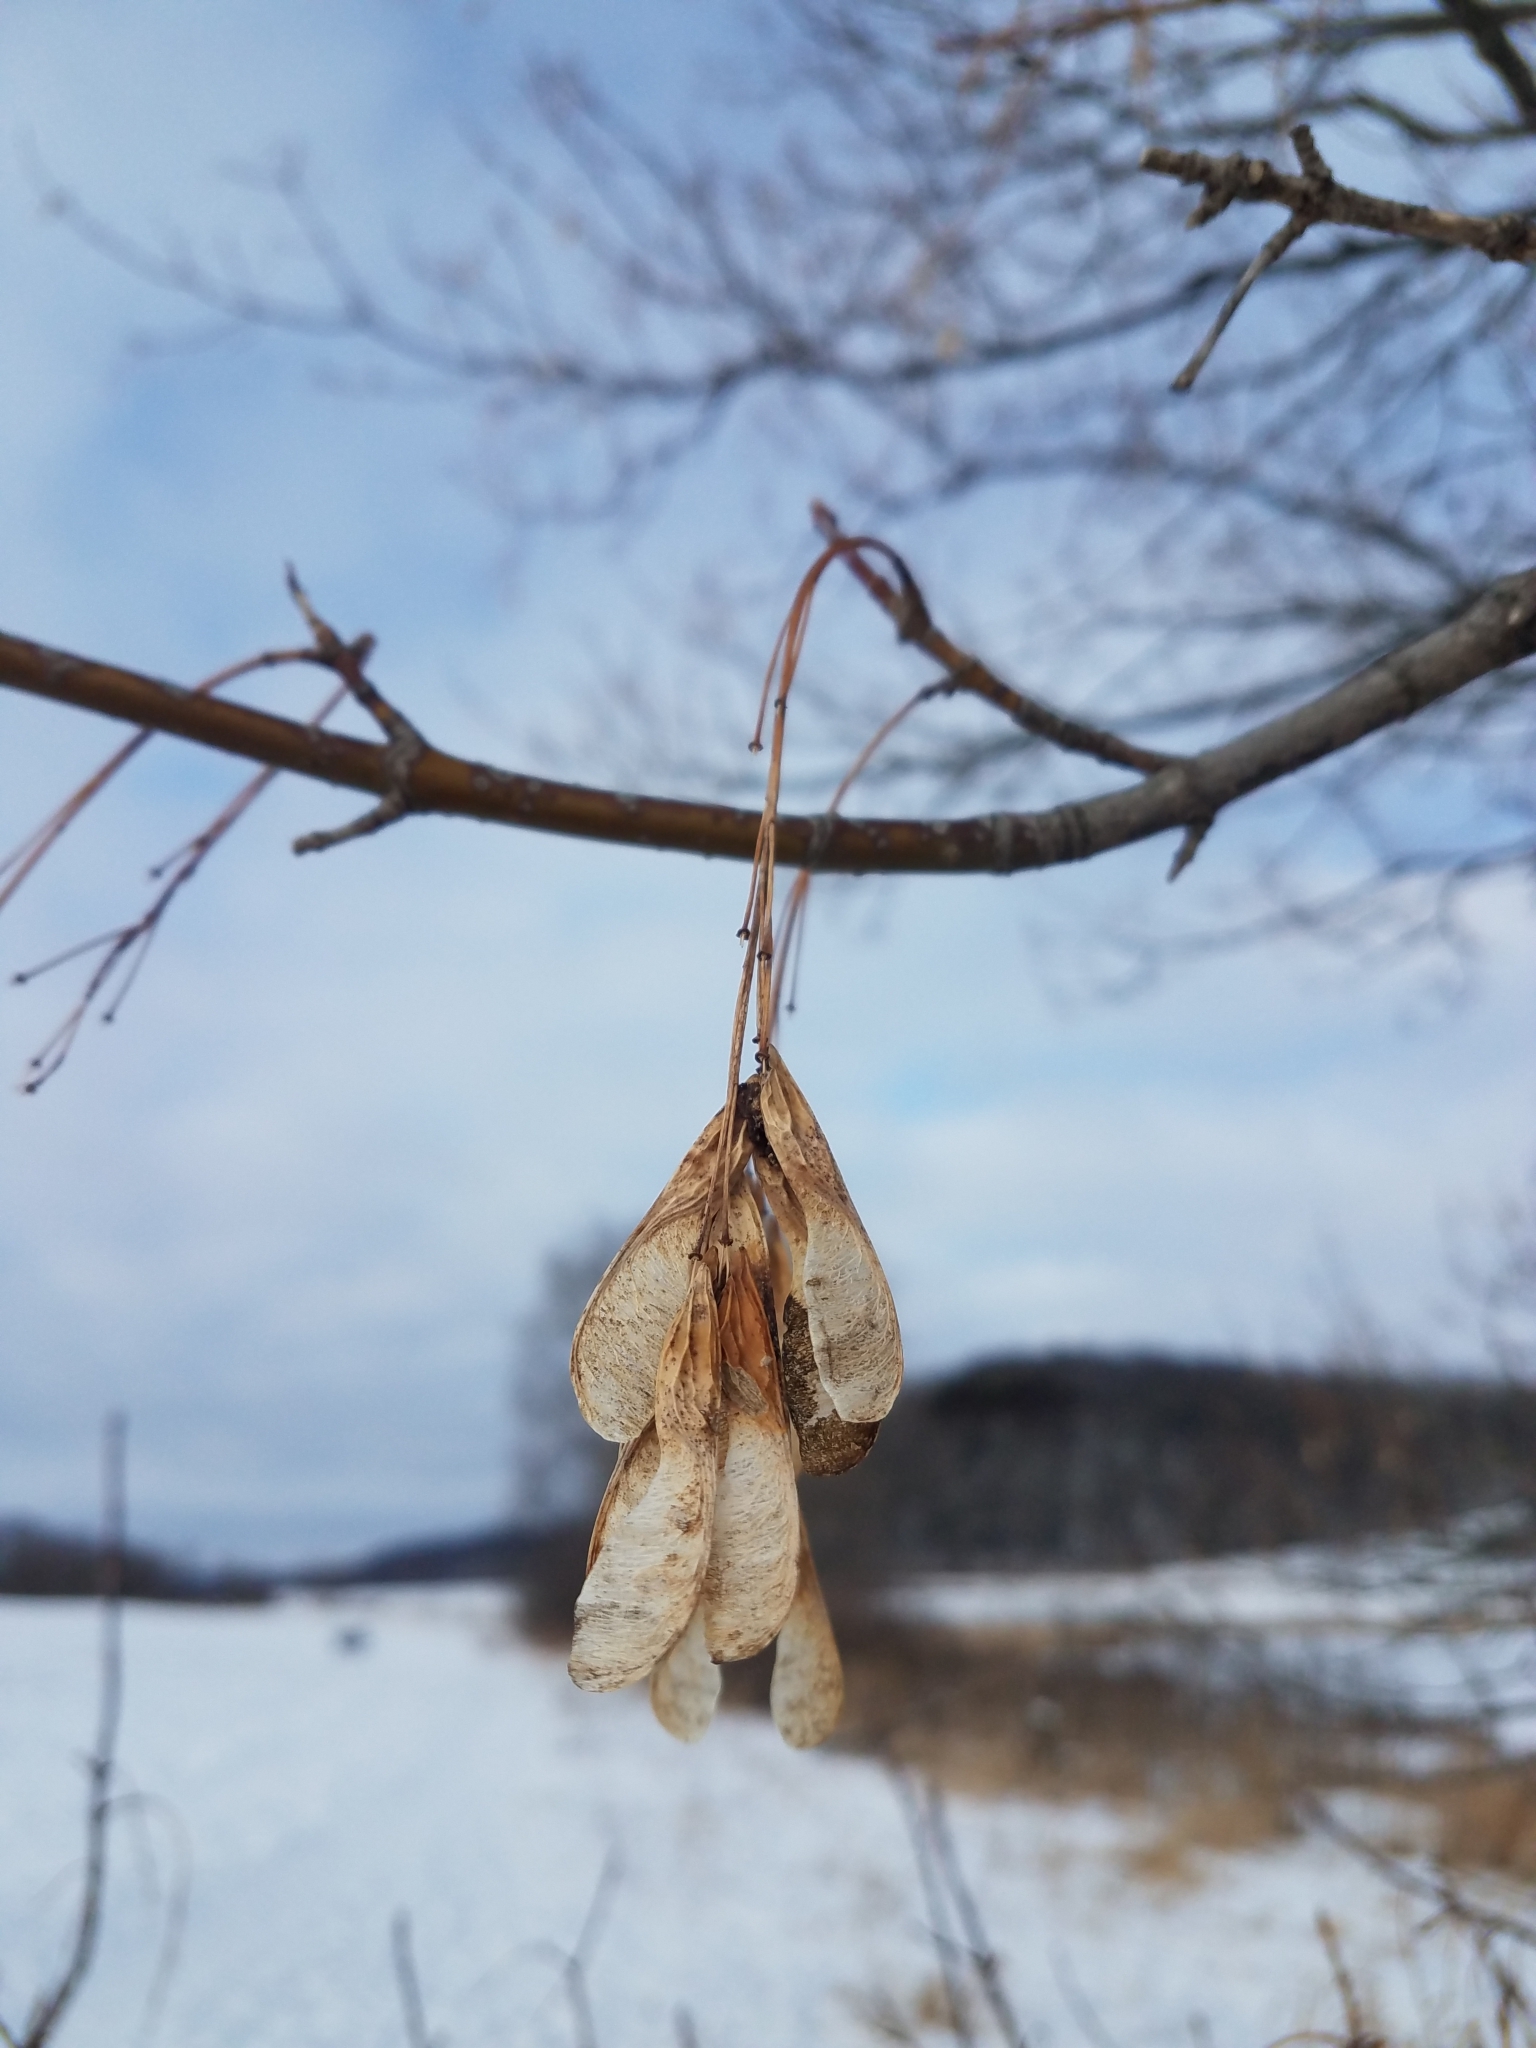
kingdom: Plantae
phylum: Tracheophyta
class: Magnoliopsida
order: Sapindales
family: Sapindaceae
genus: Acer
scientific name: Acer negundo
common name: Ashleaf maple
